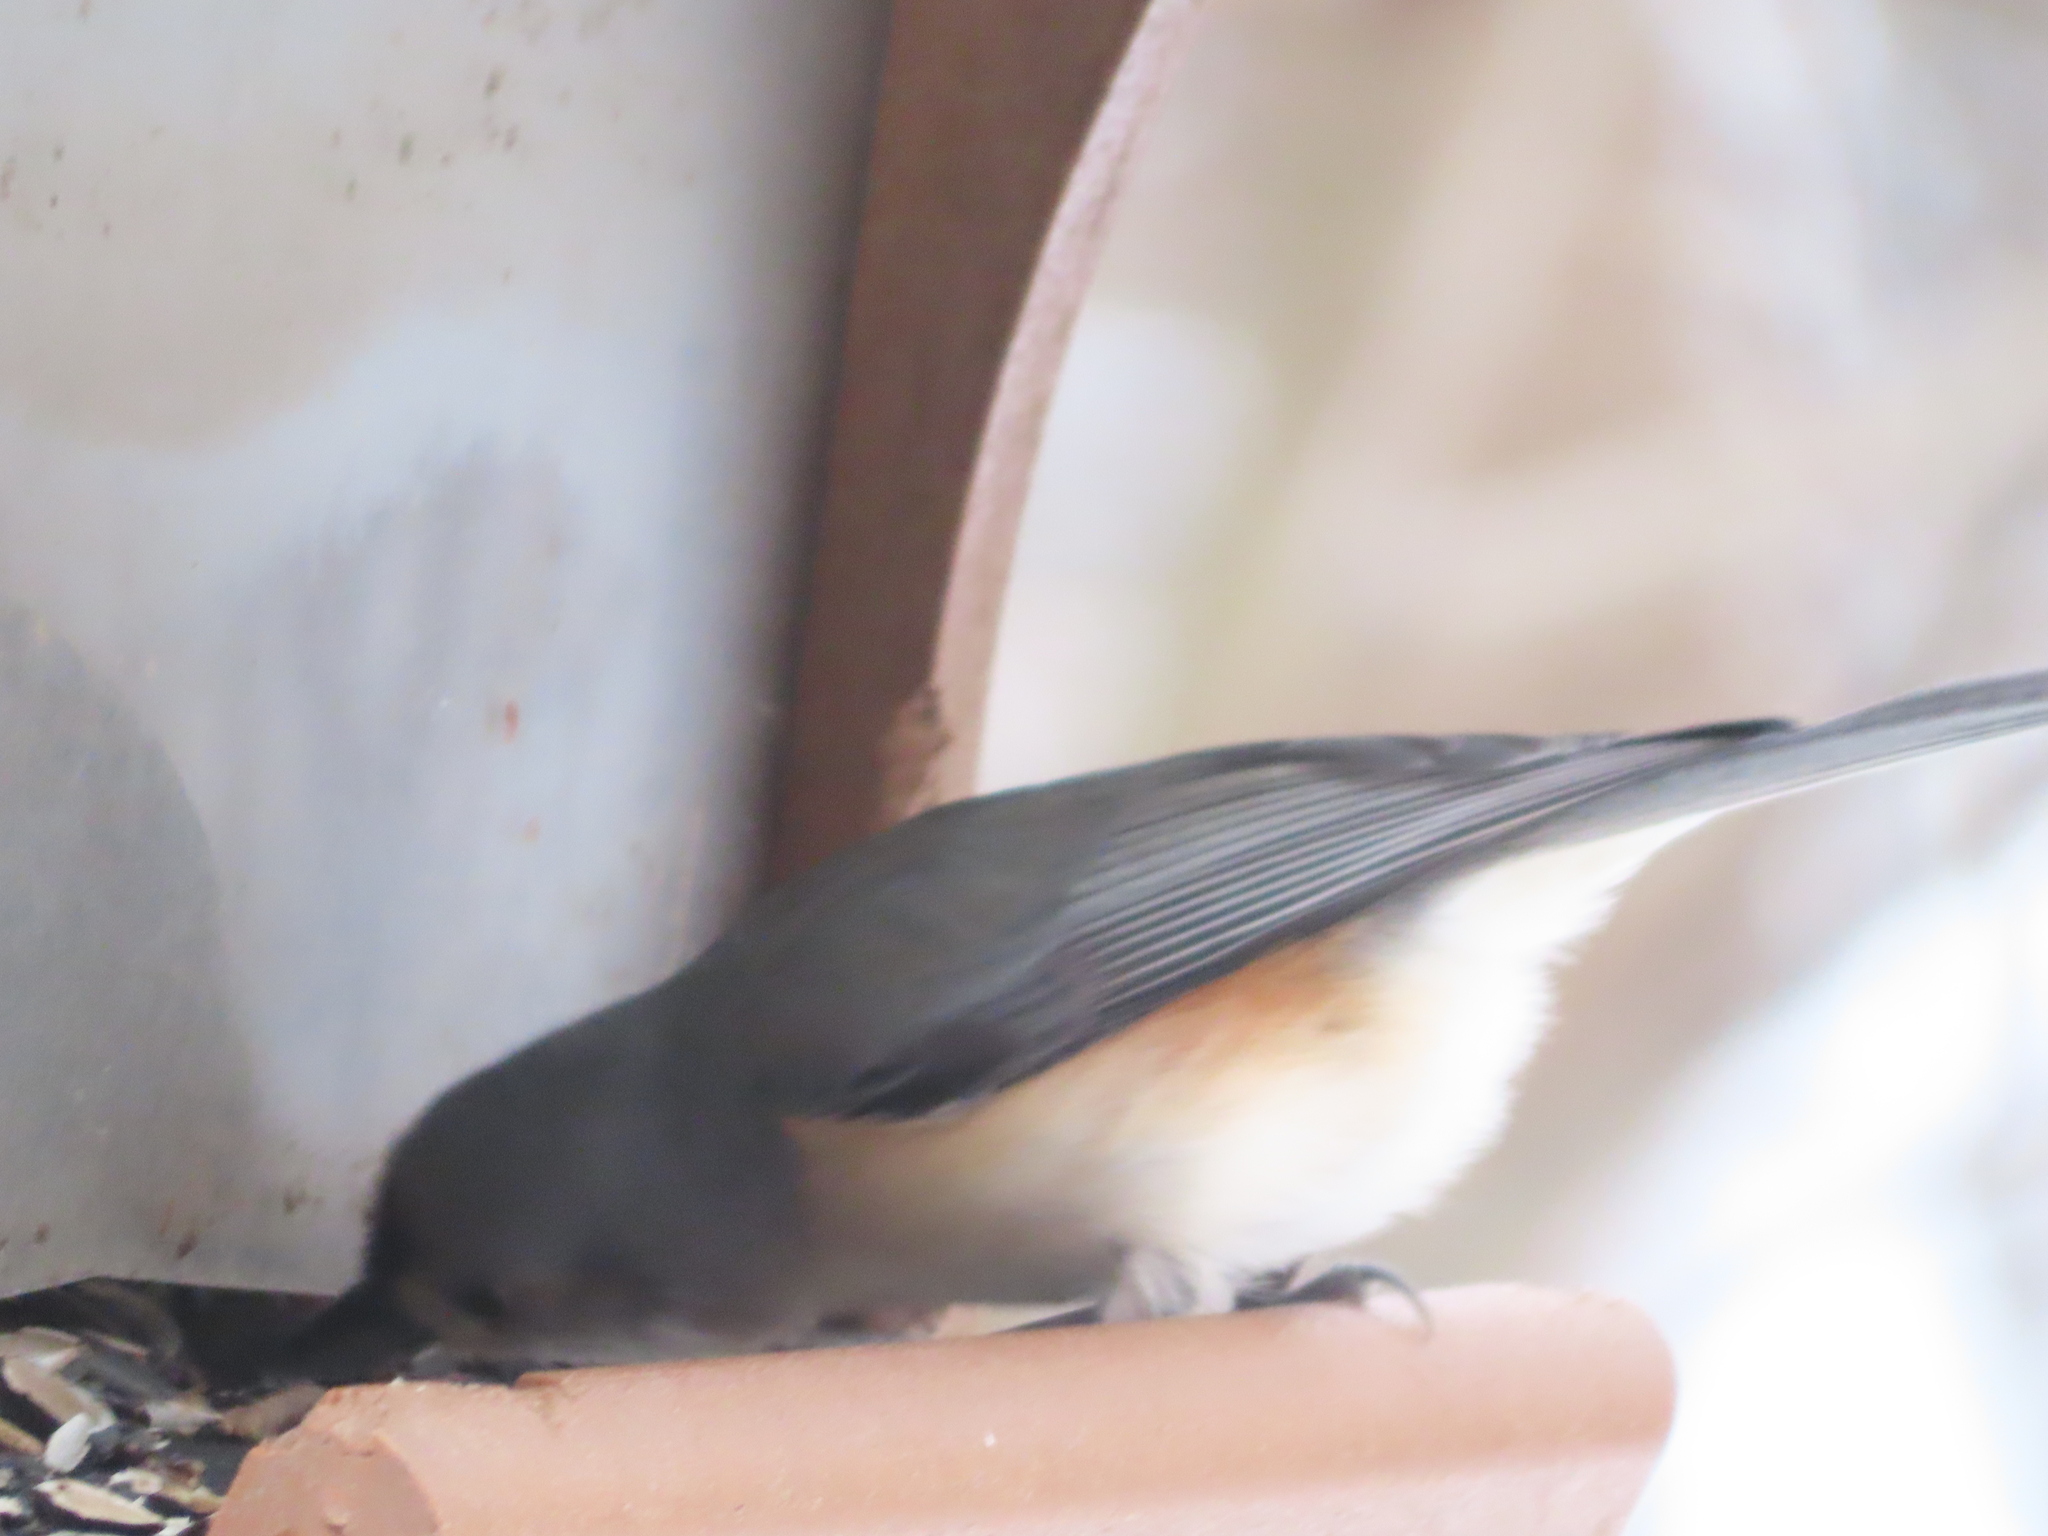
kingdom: Animalia
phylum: Chordata
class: Aves
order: Passeriformes
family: Paridae
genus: Baeolophus
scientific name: Baeolophus bicolor
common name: Tufted titmouse
